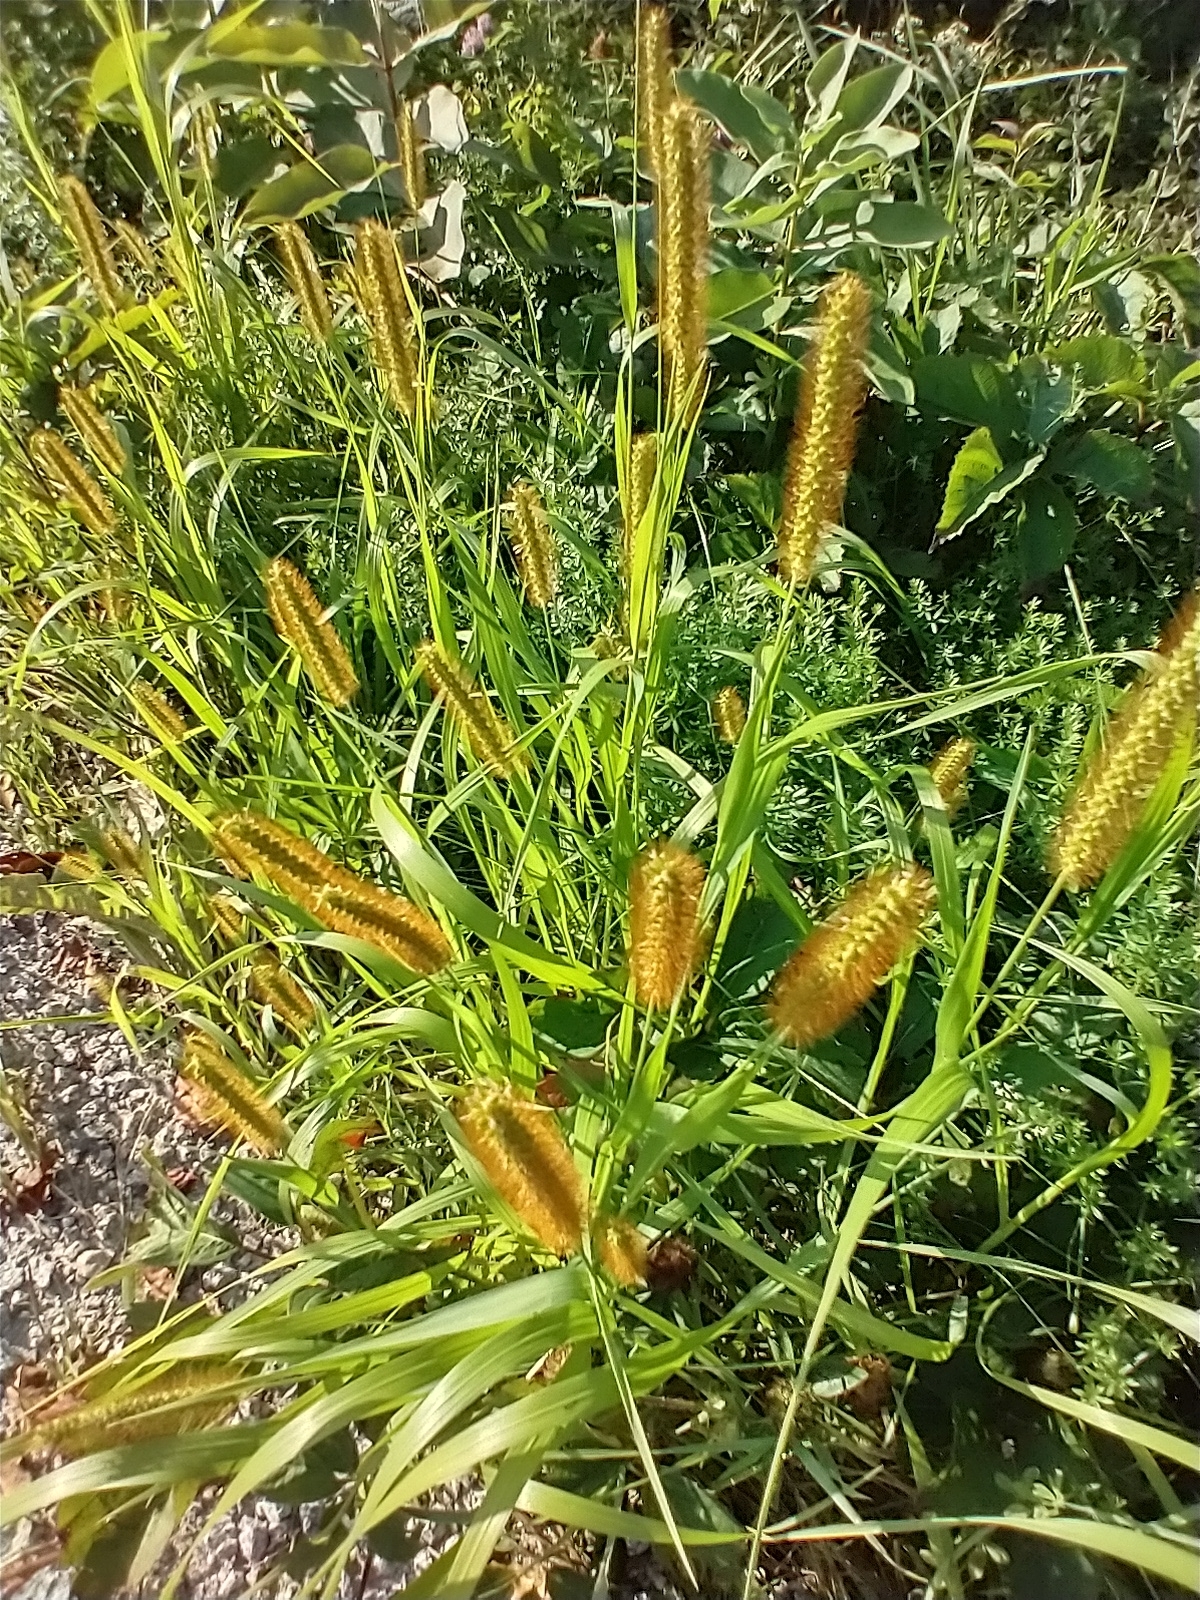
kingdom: Plantae
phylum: Tracheophyta
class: Liliopsida
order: Poales
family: Poaceae
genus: Setaria
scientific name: Setaria pumila
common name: Yellow bristle-grass
